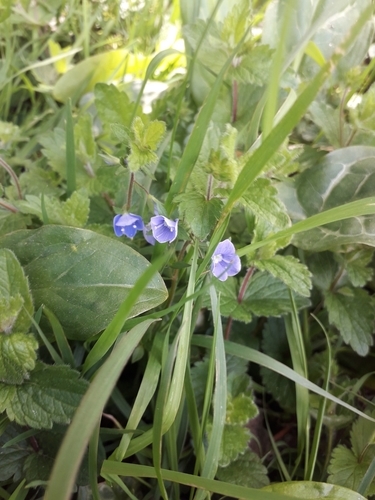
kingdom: Plantae
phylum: Tracheophyta
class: Magnoliopsida
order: Lamiales
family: Plantaginaceae
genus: Veronica
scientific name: Veronica chamaedrys
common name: Germander speedwell
